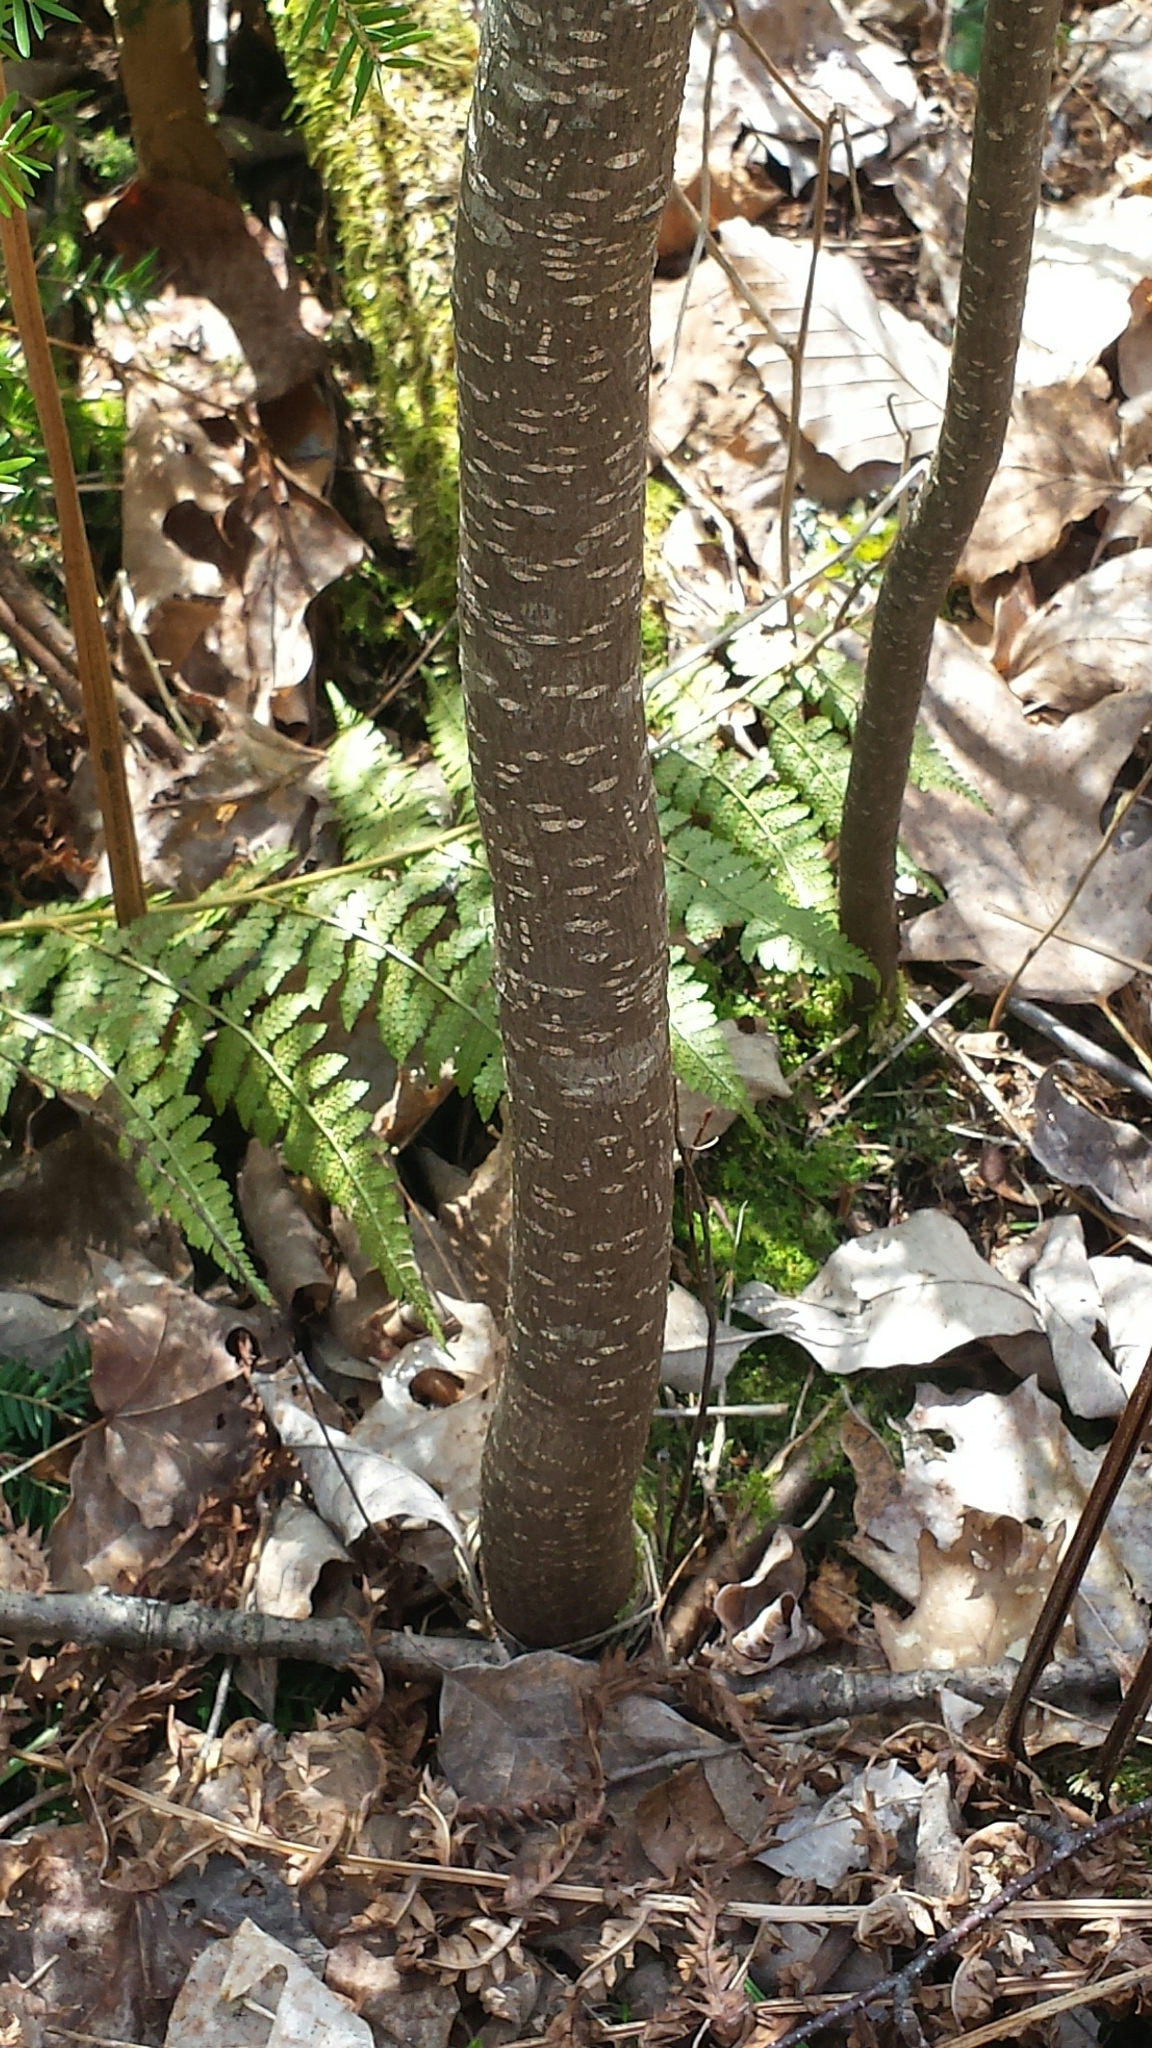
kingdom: Plantae
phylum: Tracheophyta
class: Magnoliopsida
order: Rosales
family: Rhamnaceae
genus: Frangula
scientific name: Frangula alnus
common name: Alder buckthorn
